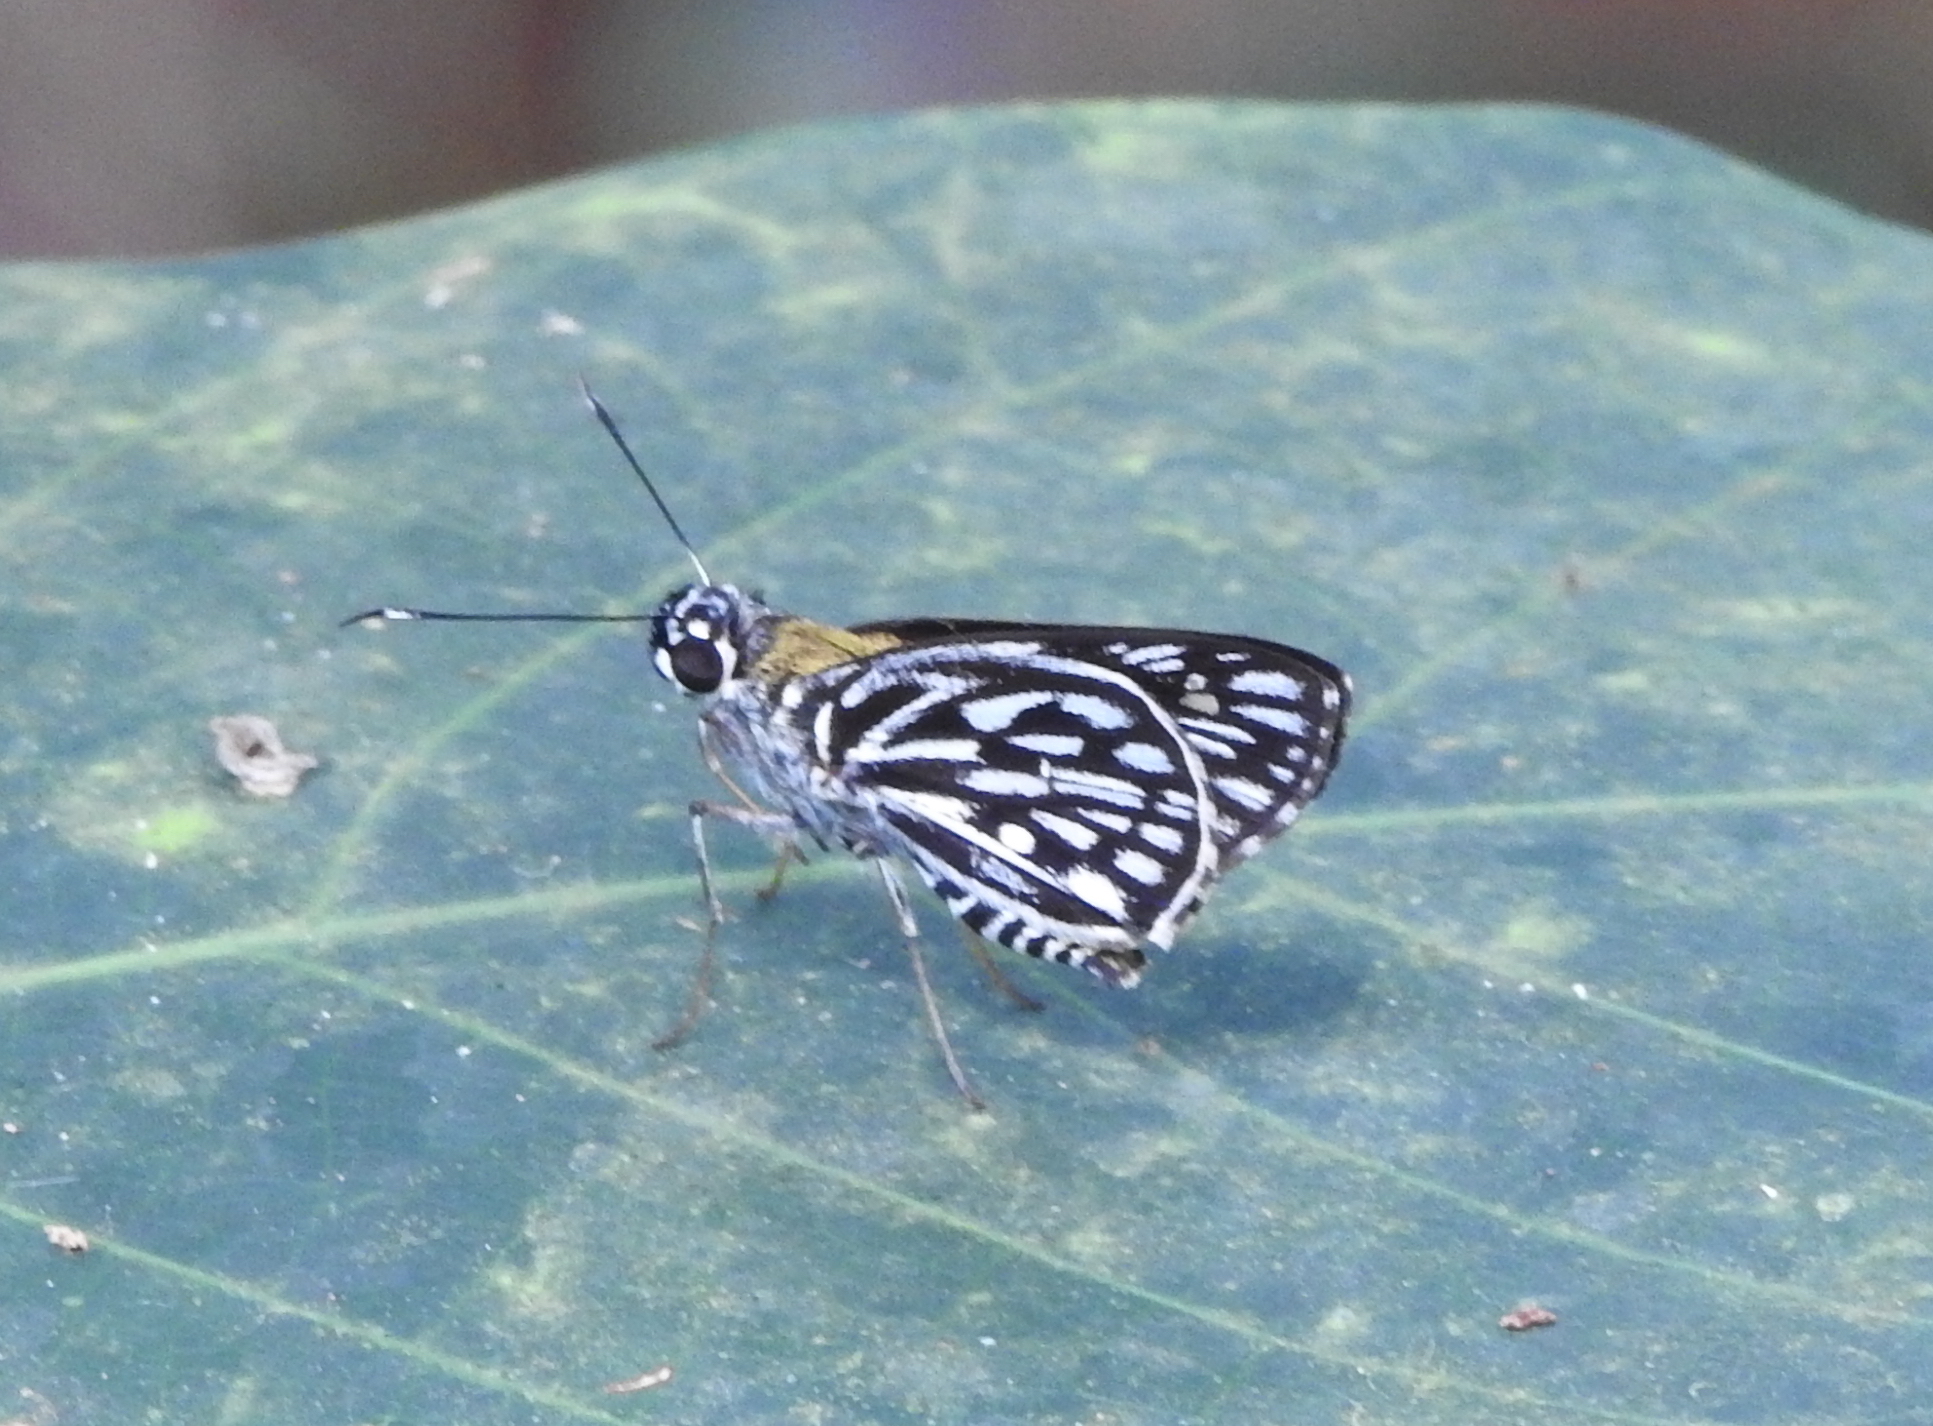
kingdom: Animalia
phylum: Arthropoda
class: Insecta
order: Lepidoptera
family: Hesperiidae
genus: Plastingia
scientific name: Plastingia naga
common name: Chequered lancer
